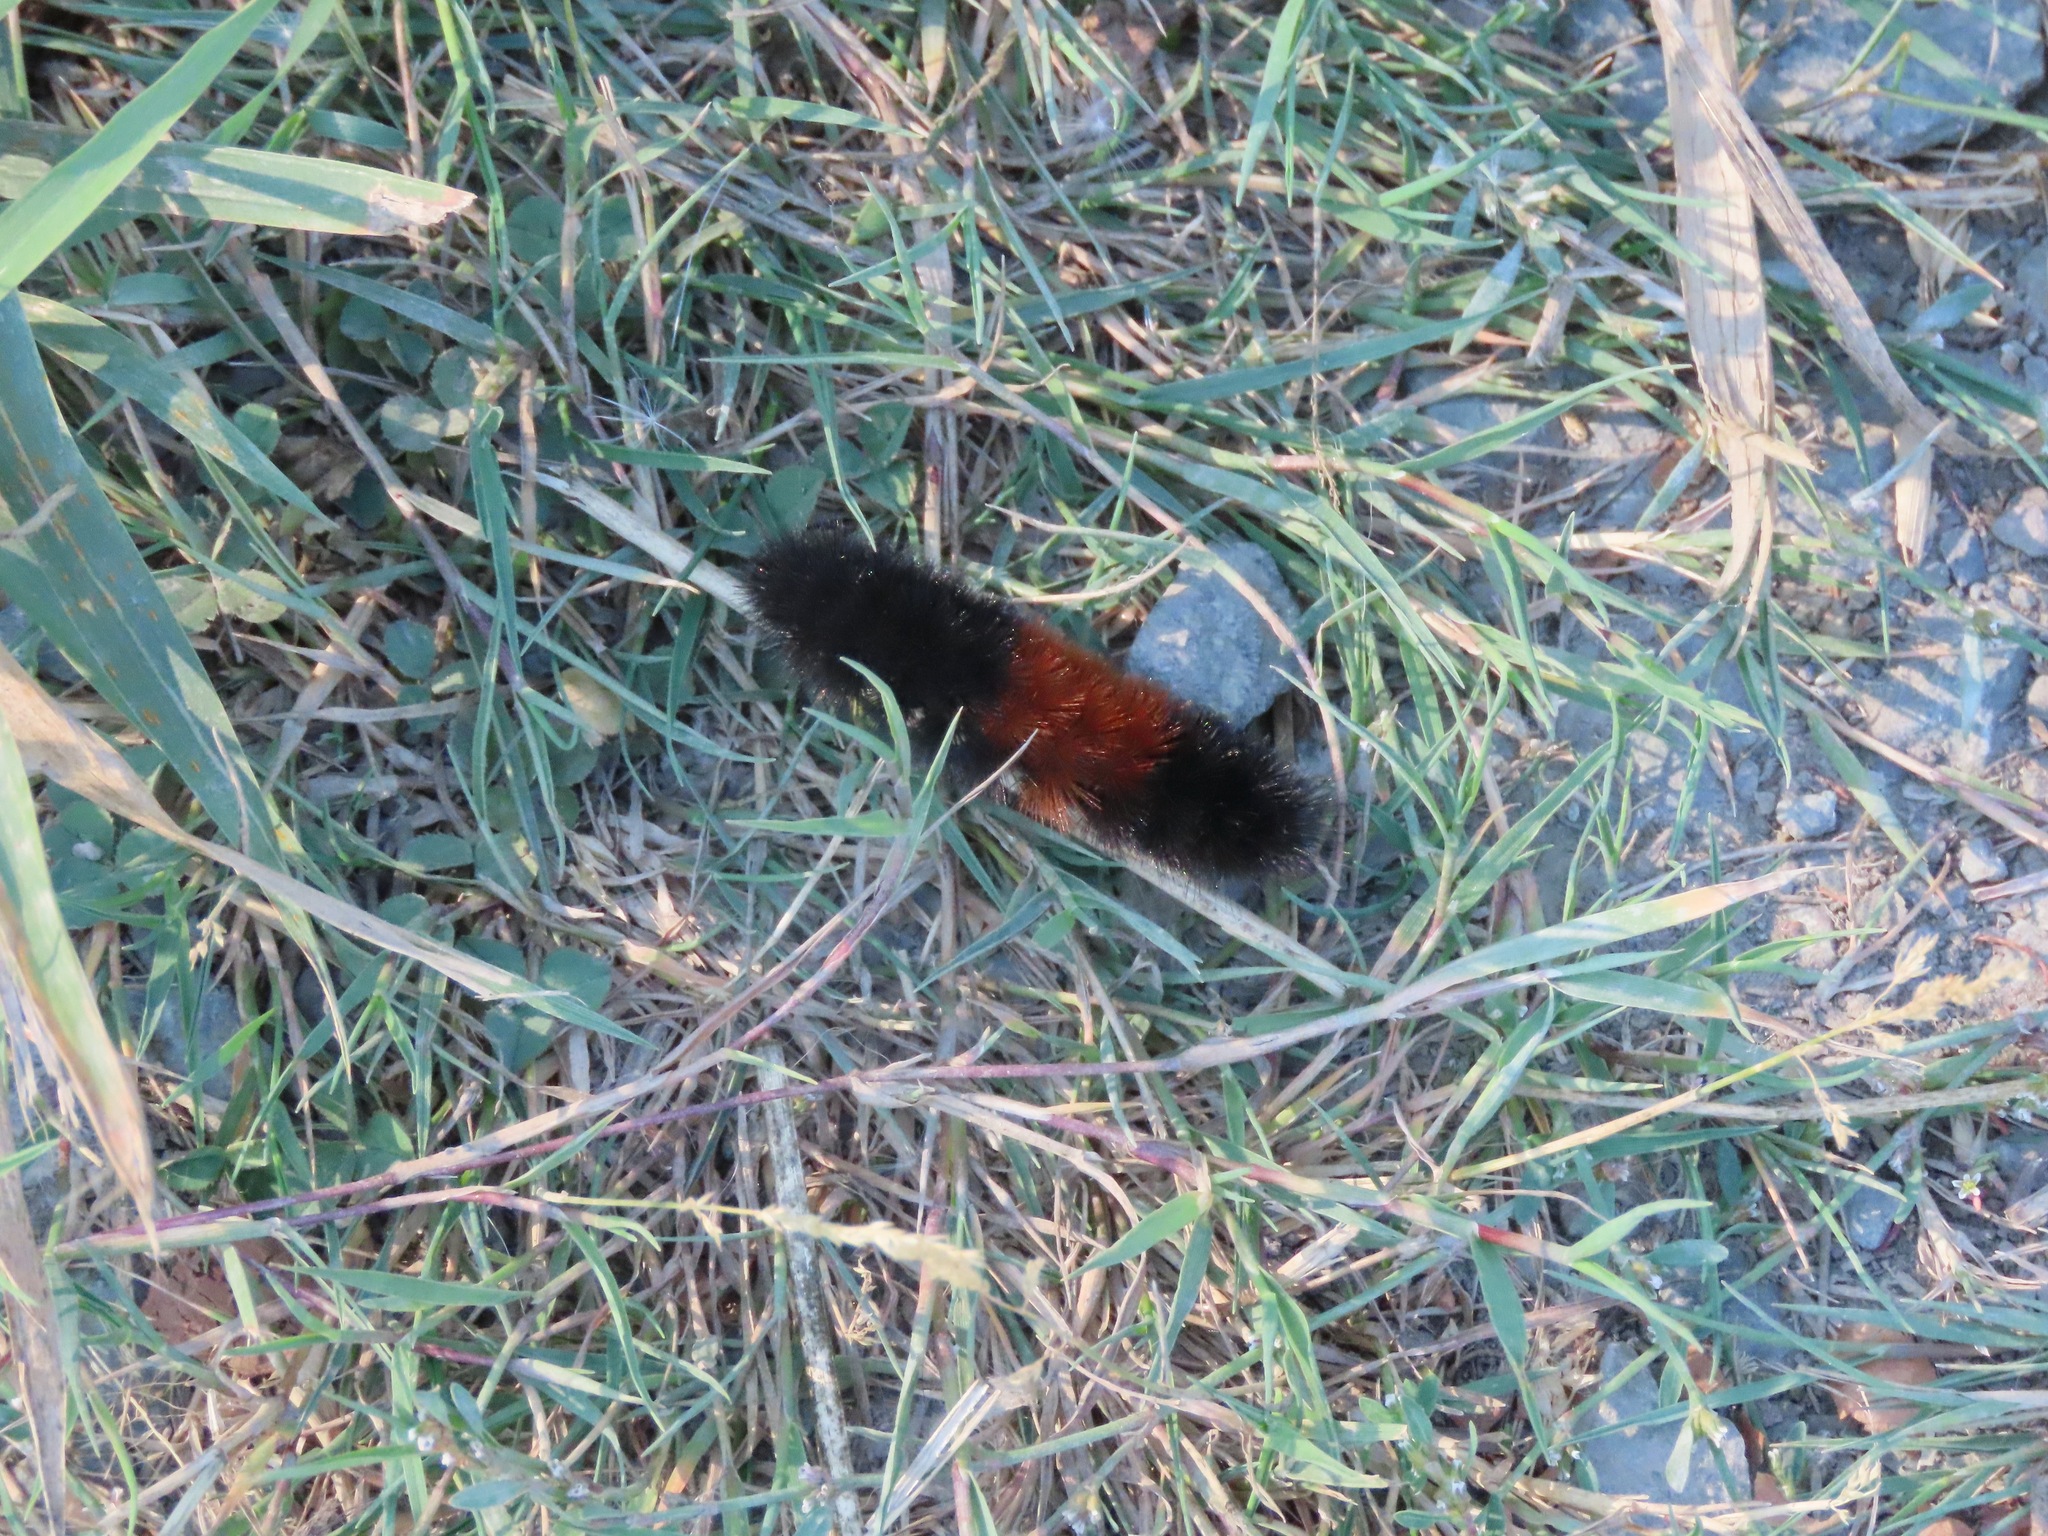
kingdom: Animalia
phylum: Arthropoda
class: Insecta
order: Lepidoptera
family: Erebidae
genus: Pyrrharctia
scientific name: Pyrrharctia isabella
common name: Isabella tiger moth
